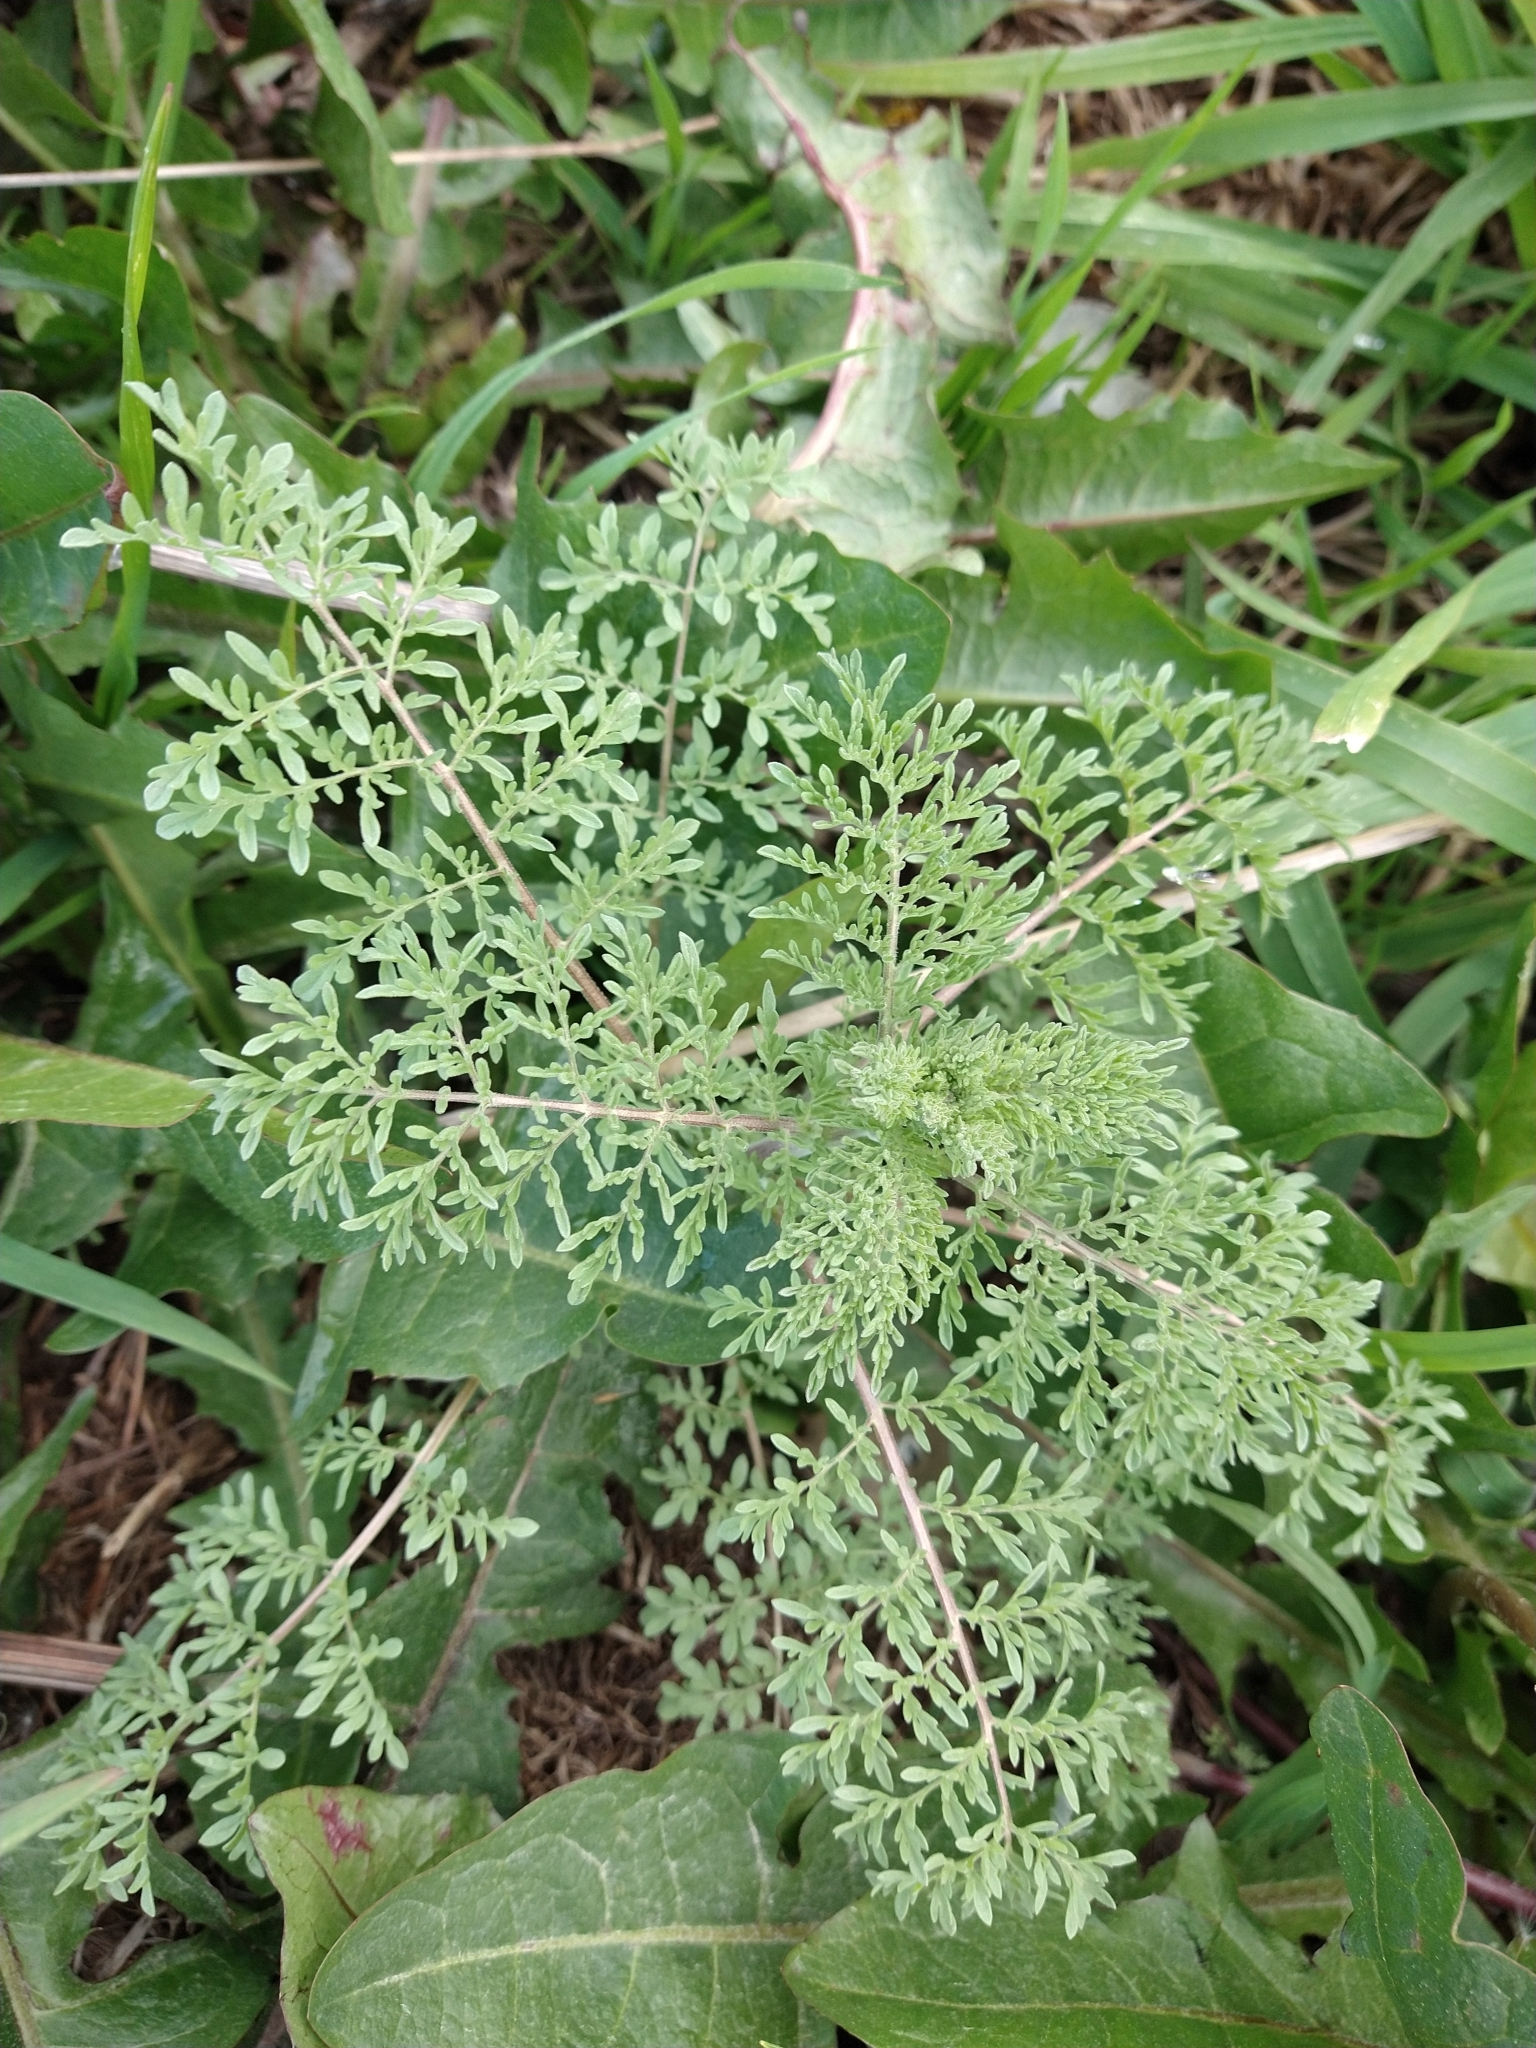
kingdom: Plantae
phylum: Tracheophyta
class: Magnoliopsida
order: Brassicales
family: Brassicaceae
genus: Descurainia
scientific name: Descurainia sophia
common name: Flixweed
